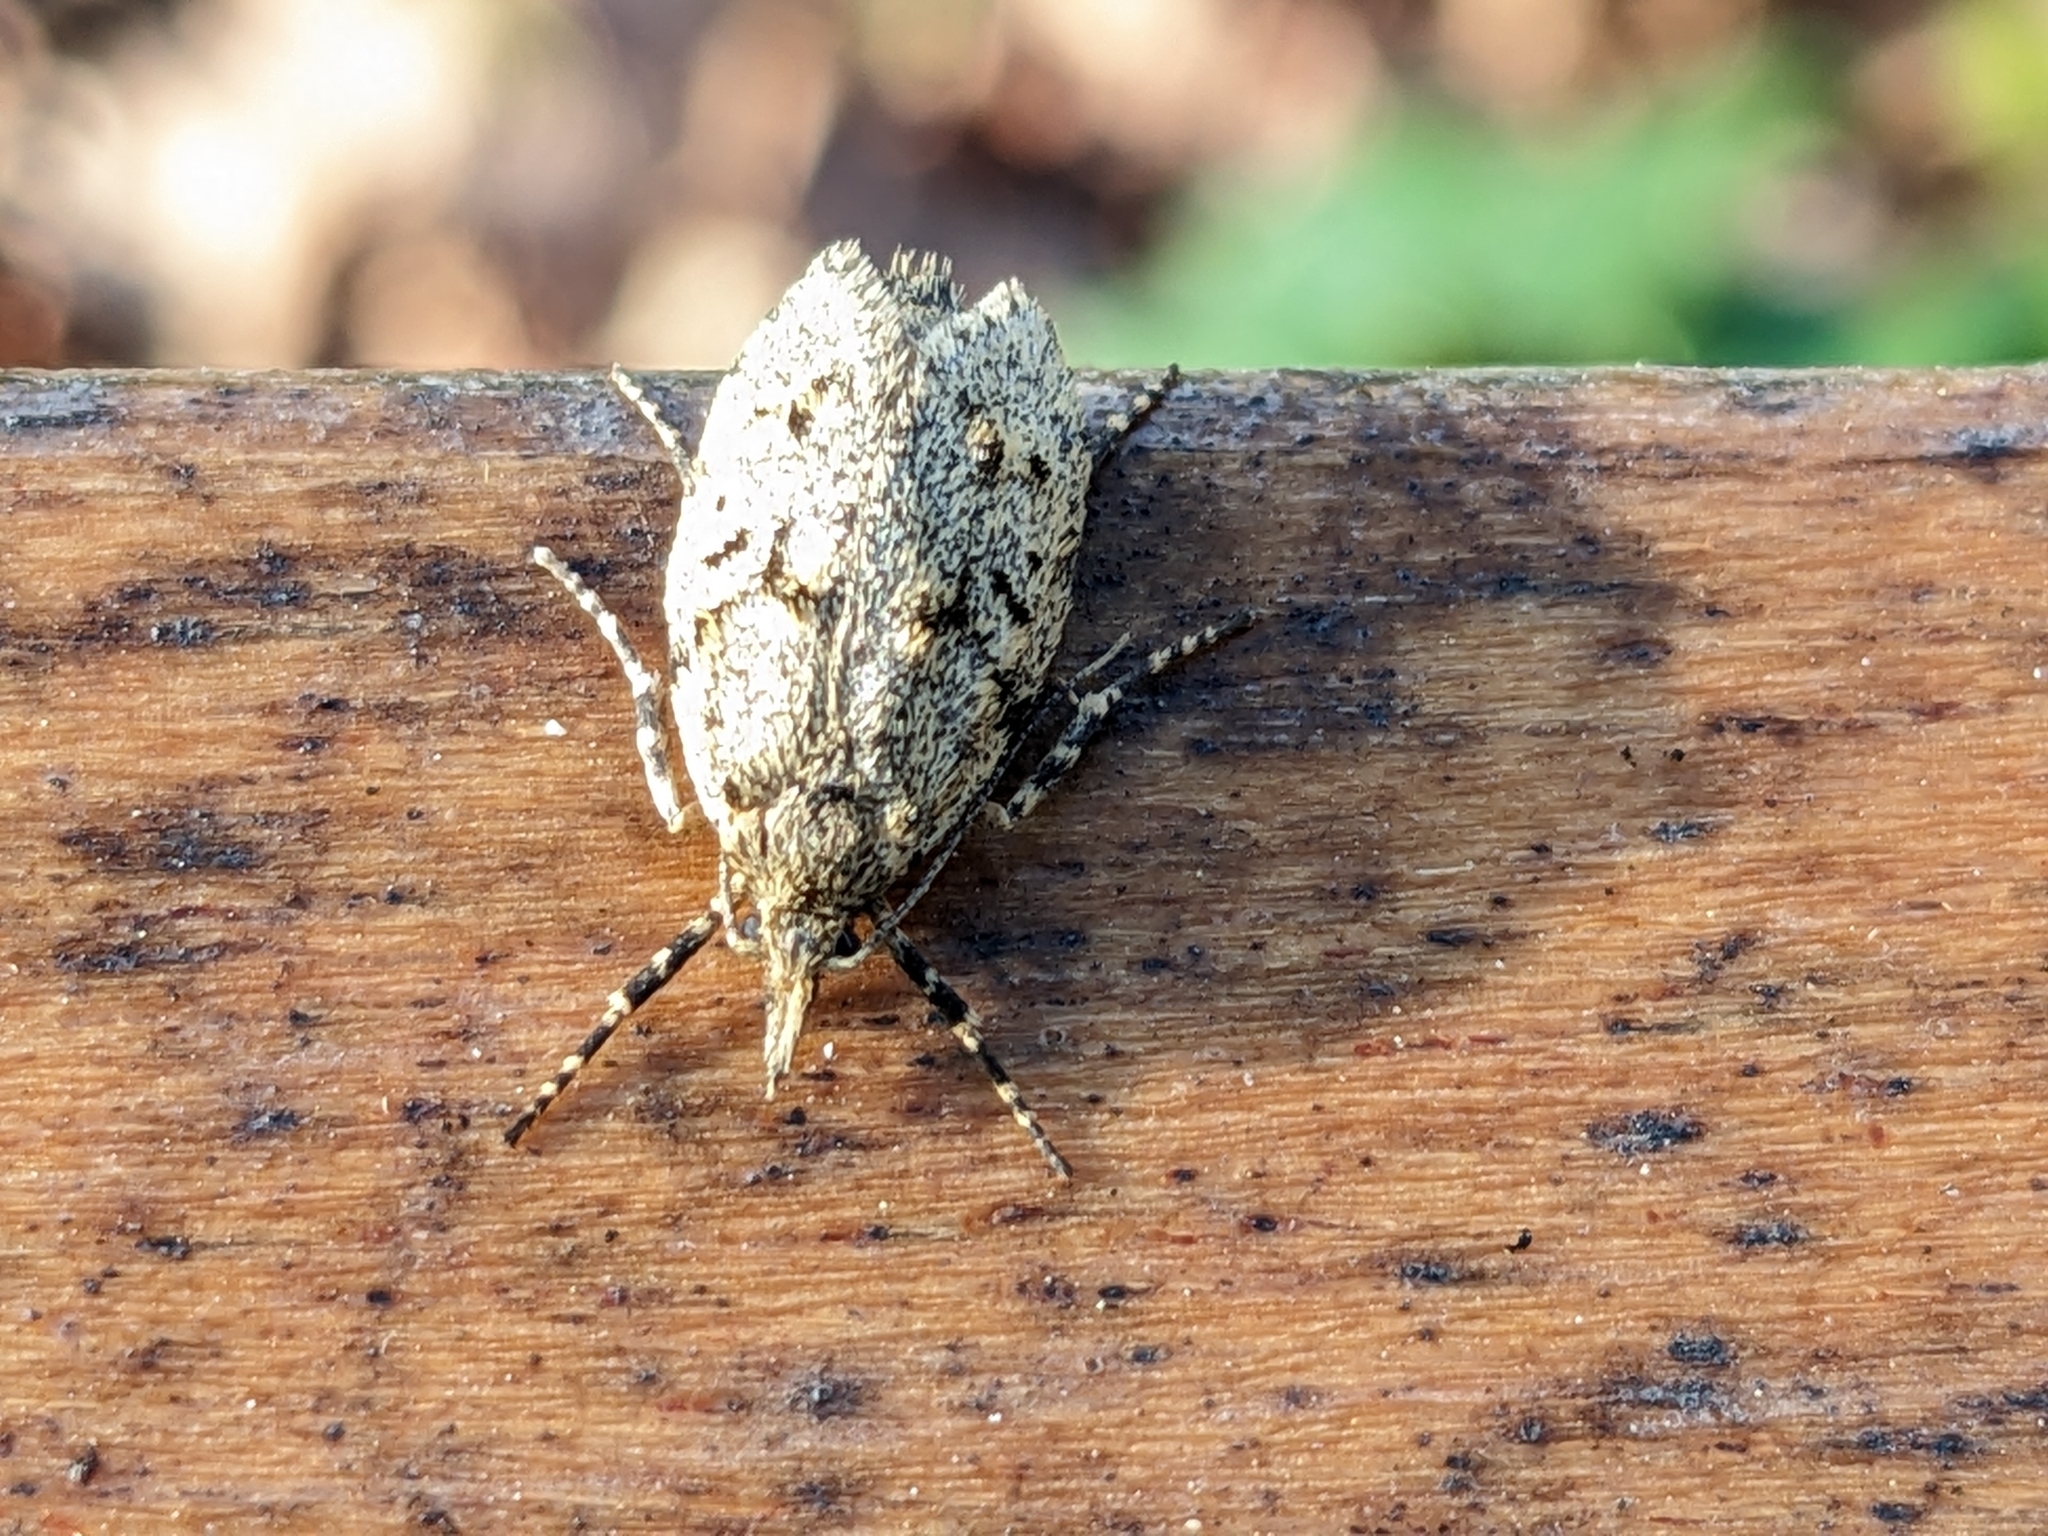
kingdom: Animalia
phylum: Arthropoda
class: Insecta
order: Lepidoptera
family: Lypusidae
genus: Diurnea
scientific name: Diurnea fagella
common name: March tubic
